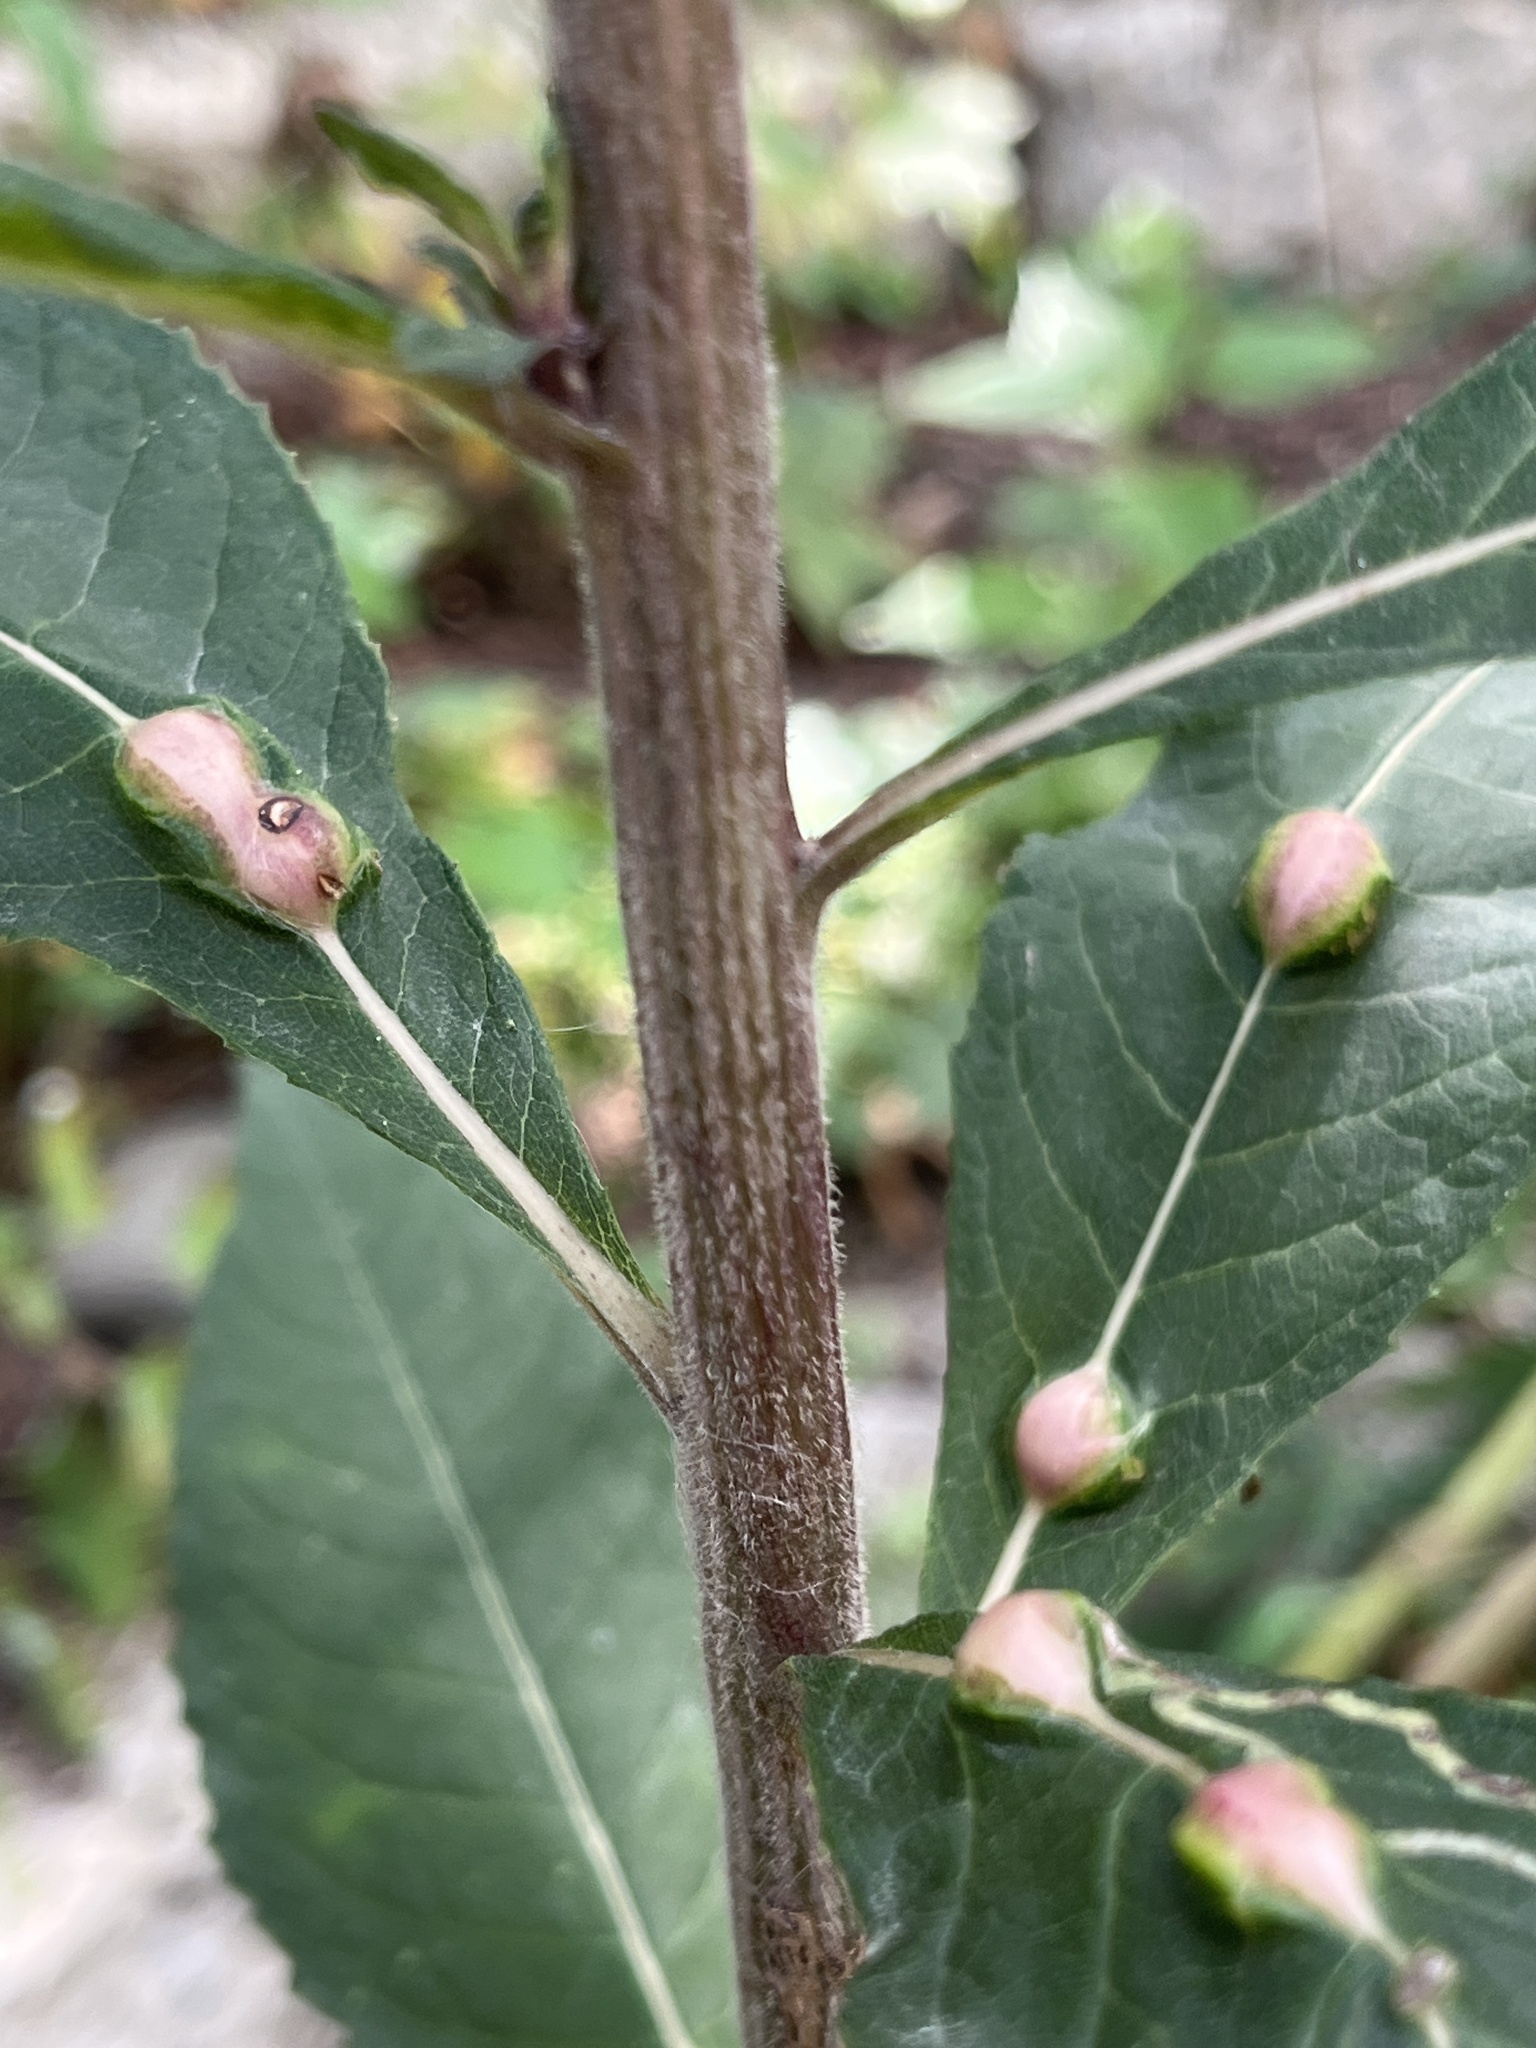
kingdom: Animalia
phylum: Arthropoda
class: Insecta
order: Diptera
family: Cecidomyiidae
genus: Neolasioptera
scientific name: Neolasioptera vernoniae
